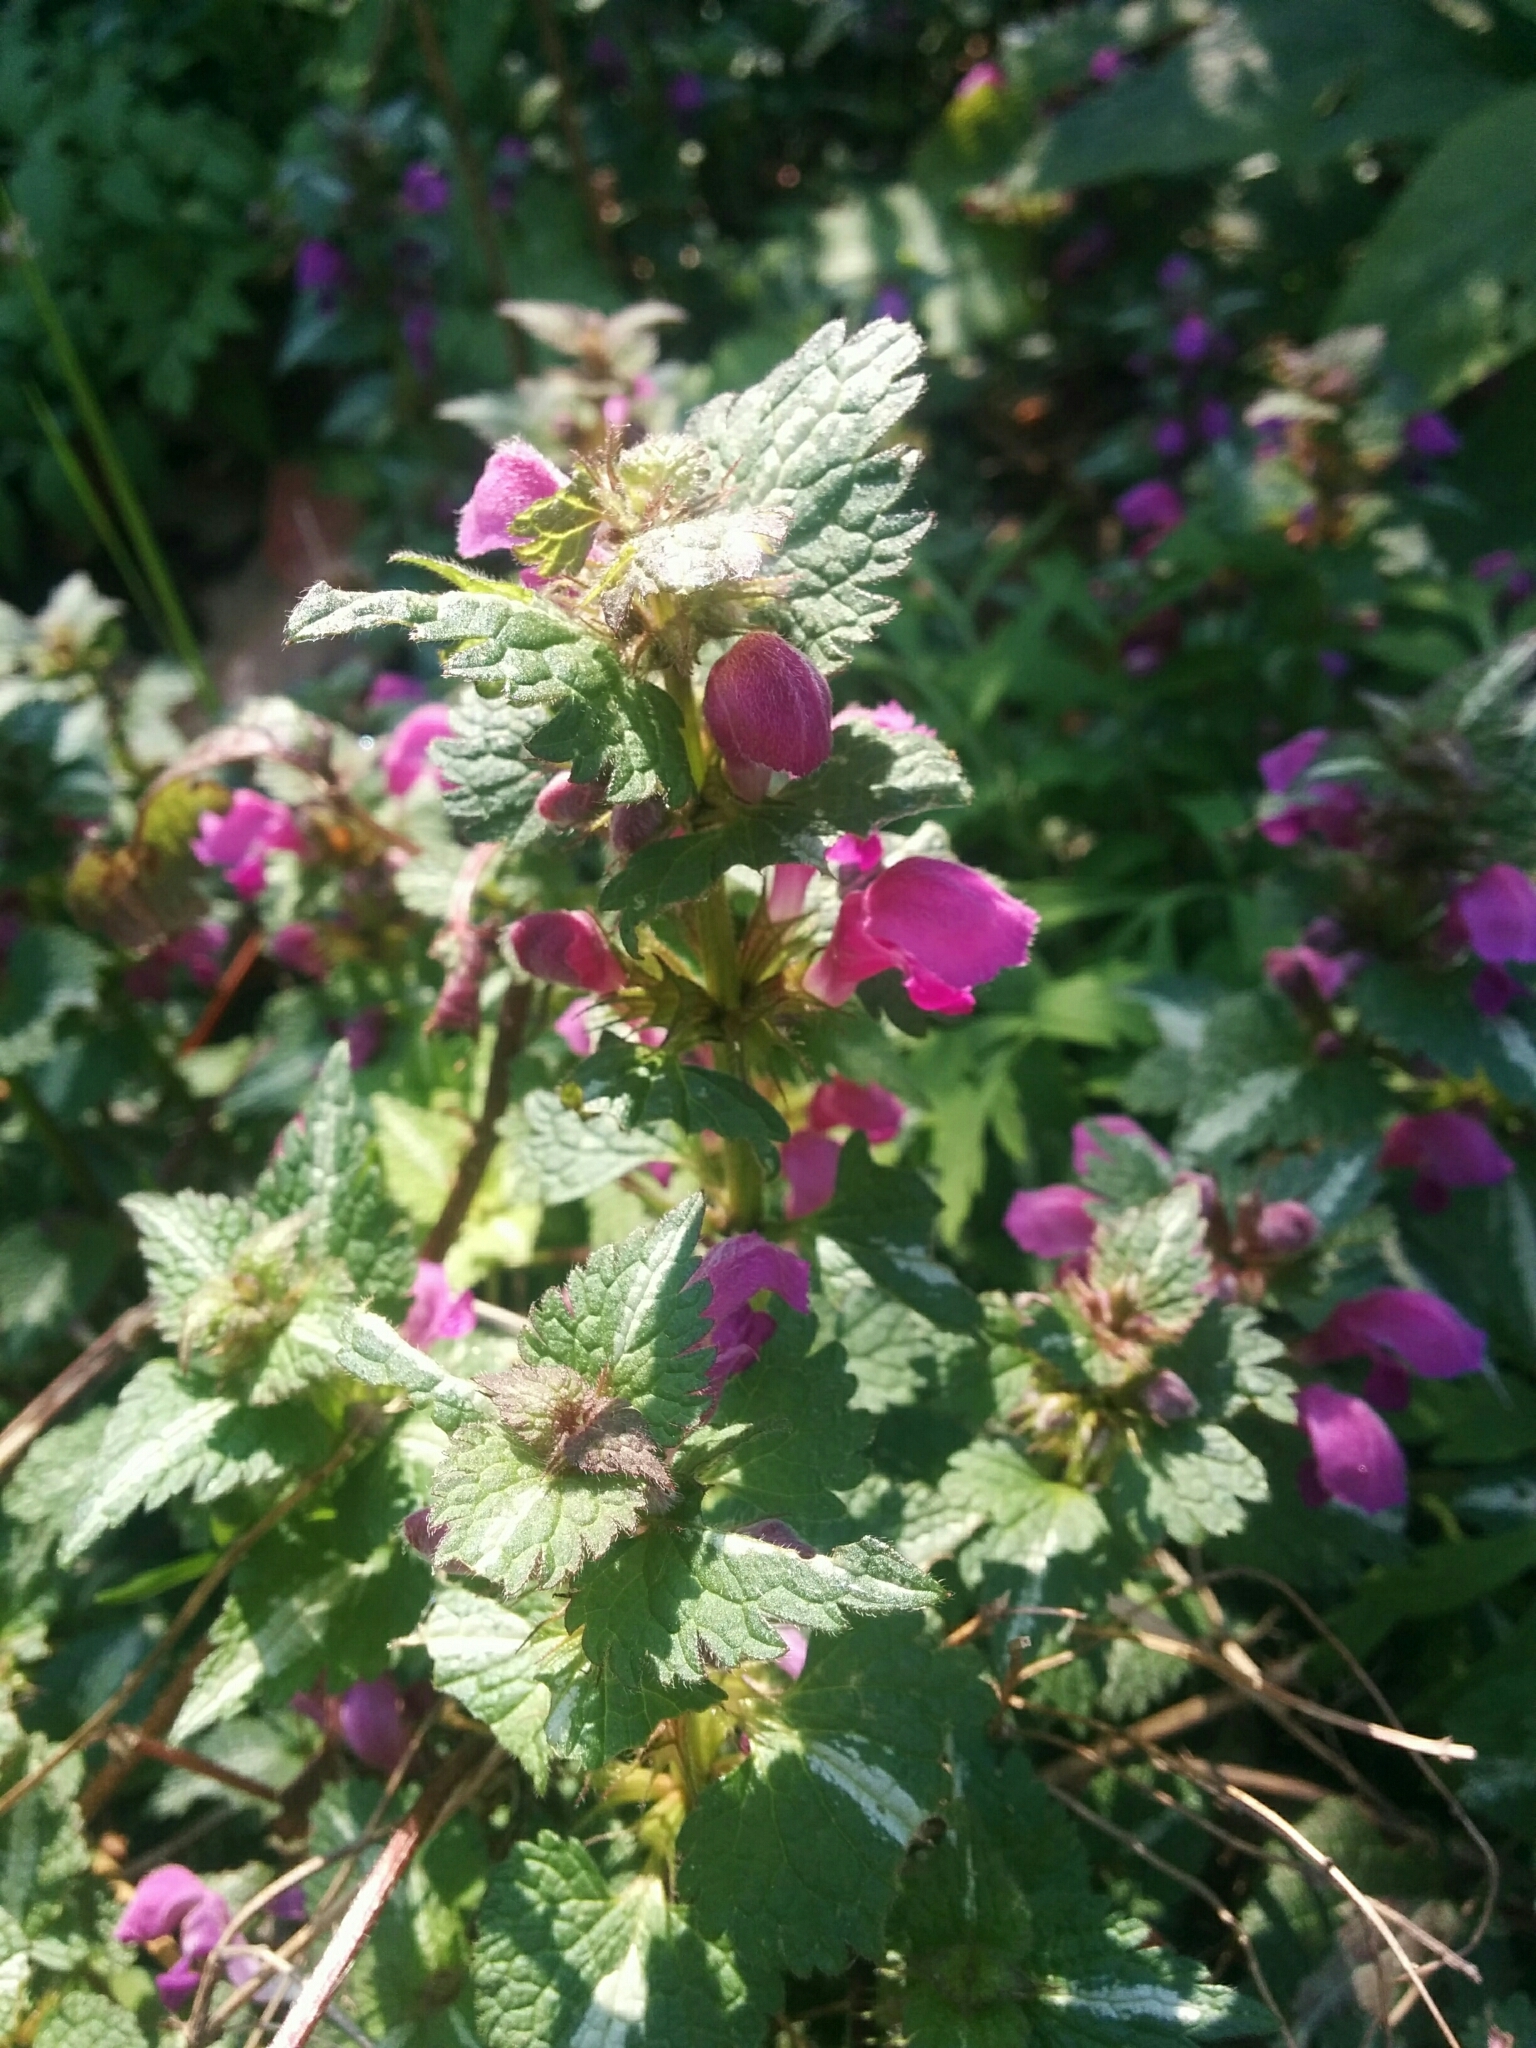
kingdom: Plantae
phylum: Tracheophyta
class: Magnoliopsida
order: Lamiales
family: Lamiaceae
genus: Lamium
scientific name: Lamium maculatum
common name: Spotted dead-nettle
